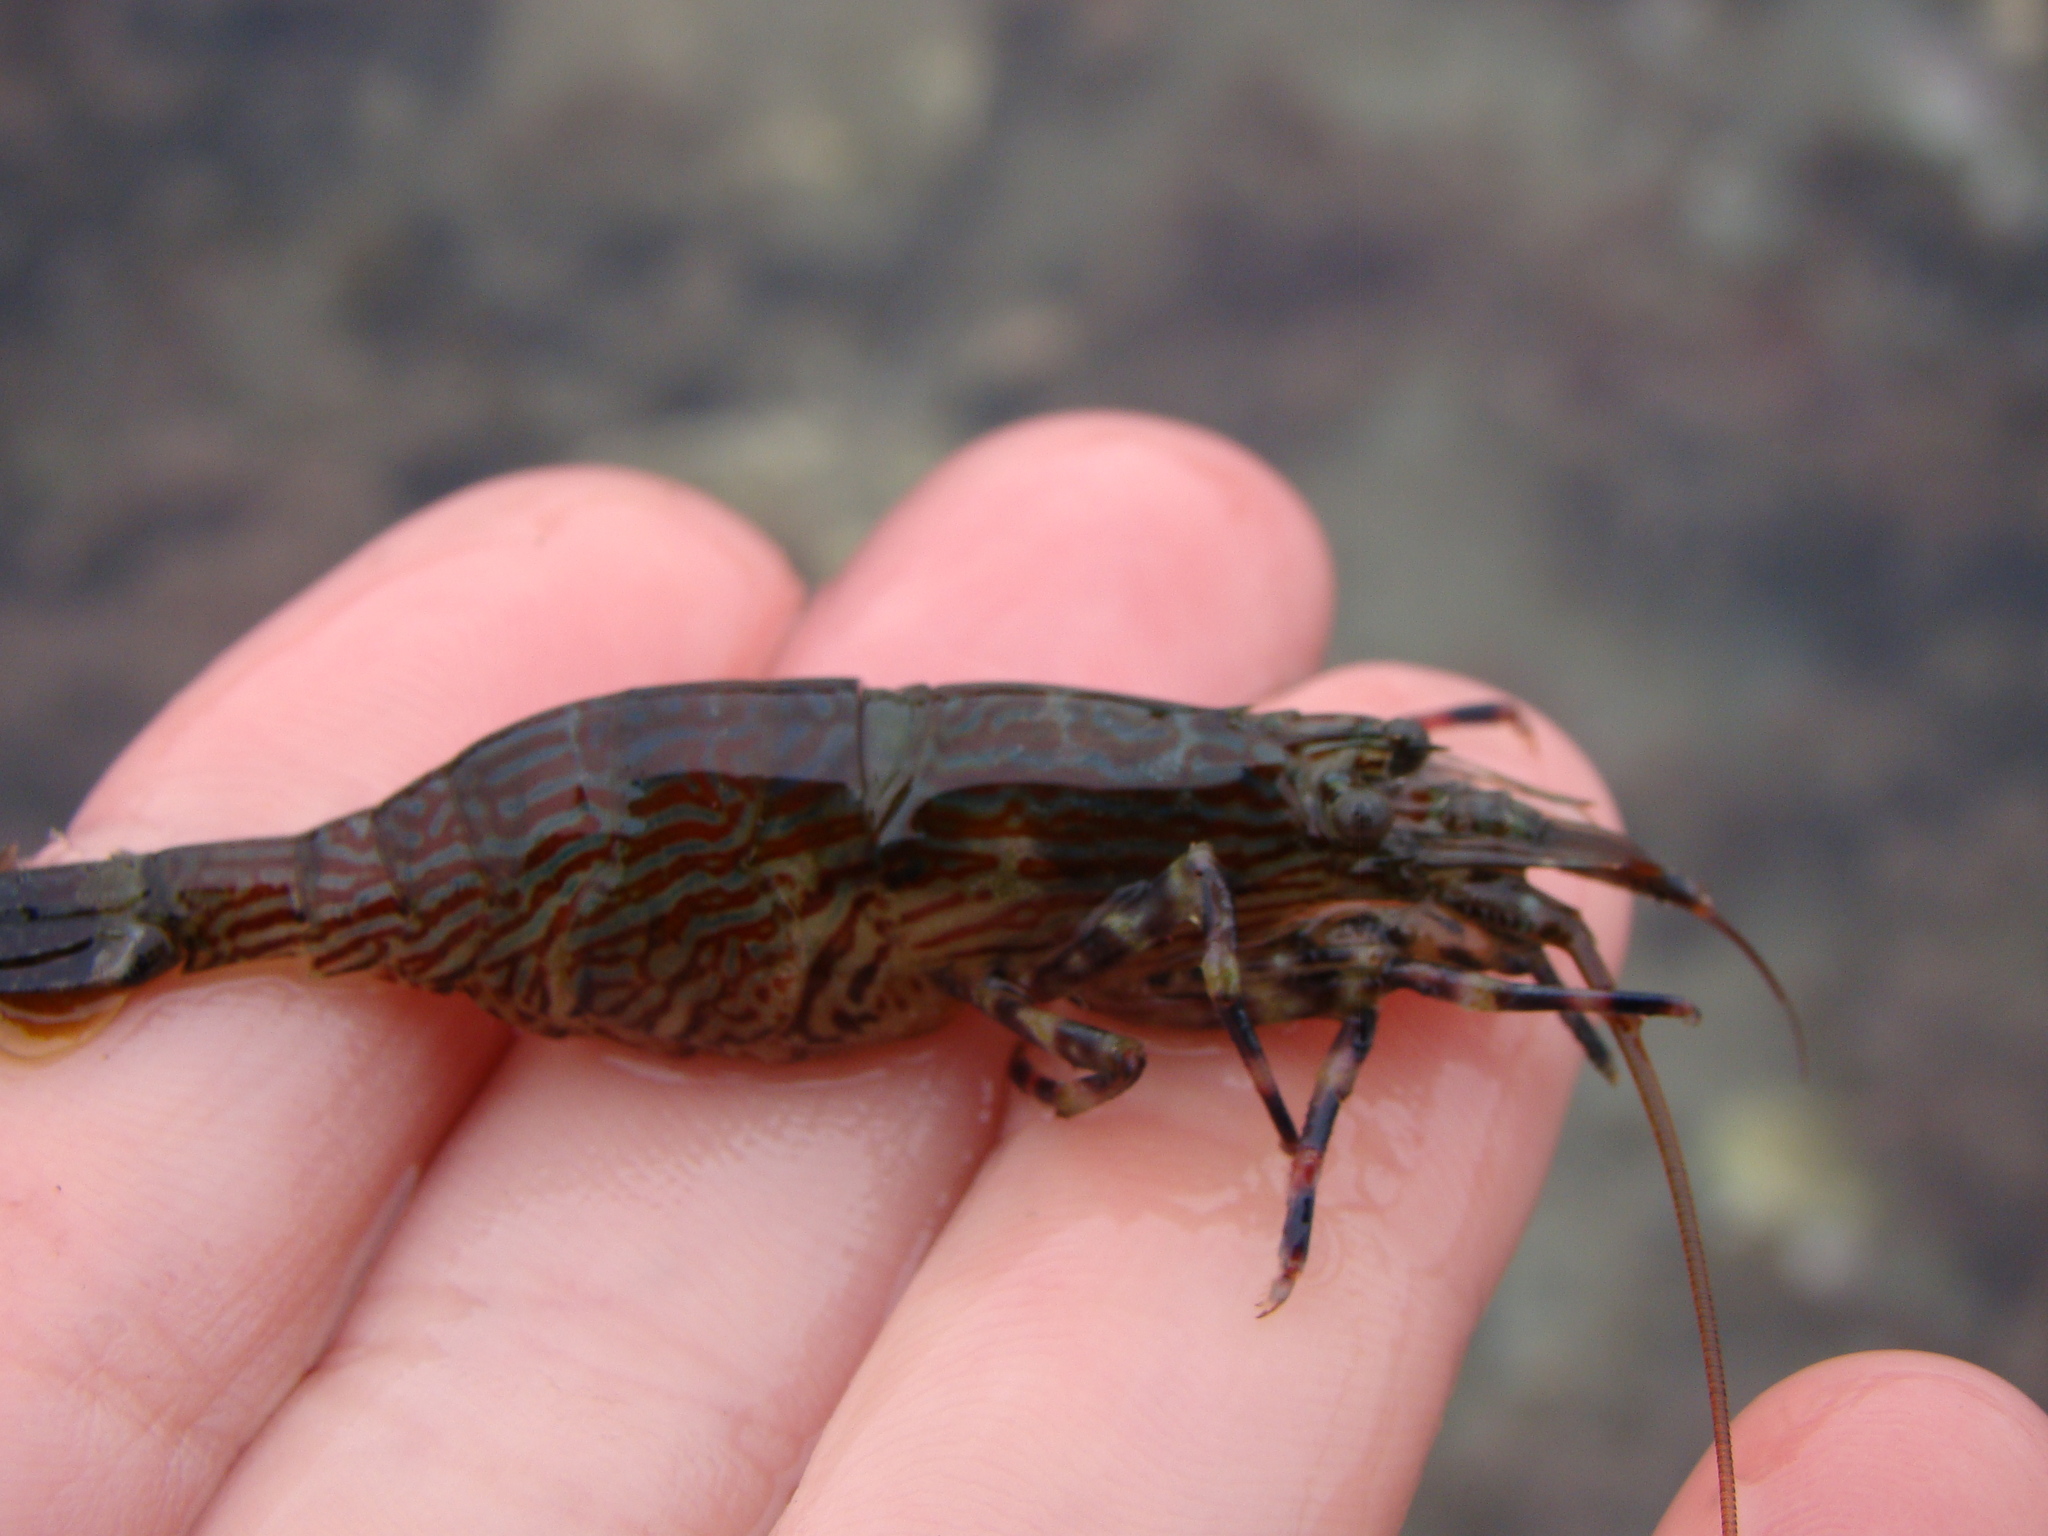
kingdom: Animalia
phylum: Arthropoda
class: Malacostraca
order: Decapoda
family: Hippolytidae
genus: Alope
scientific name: Alope spinifrons
